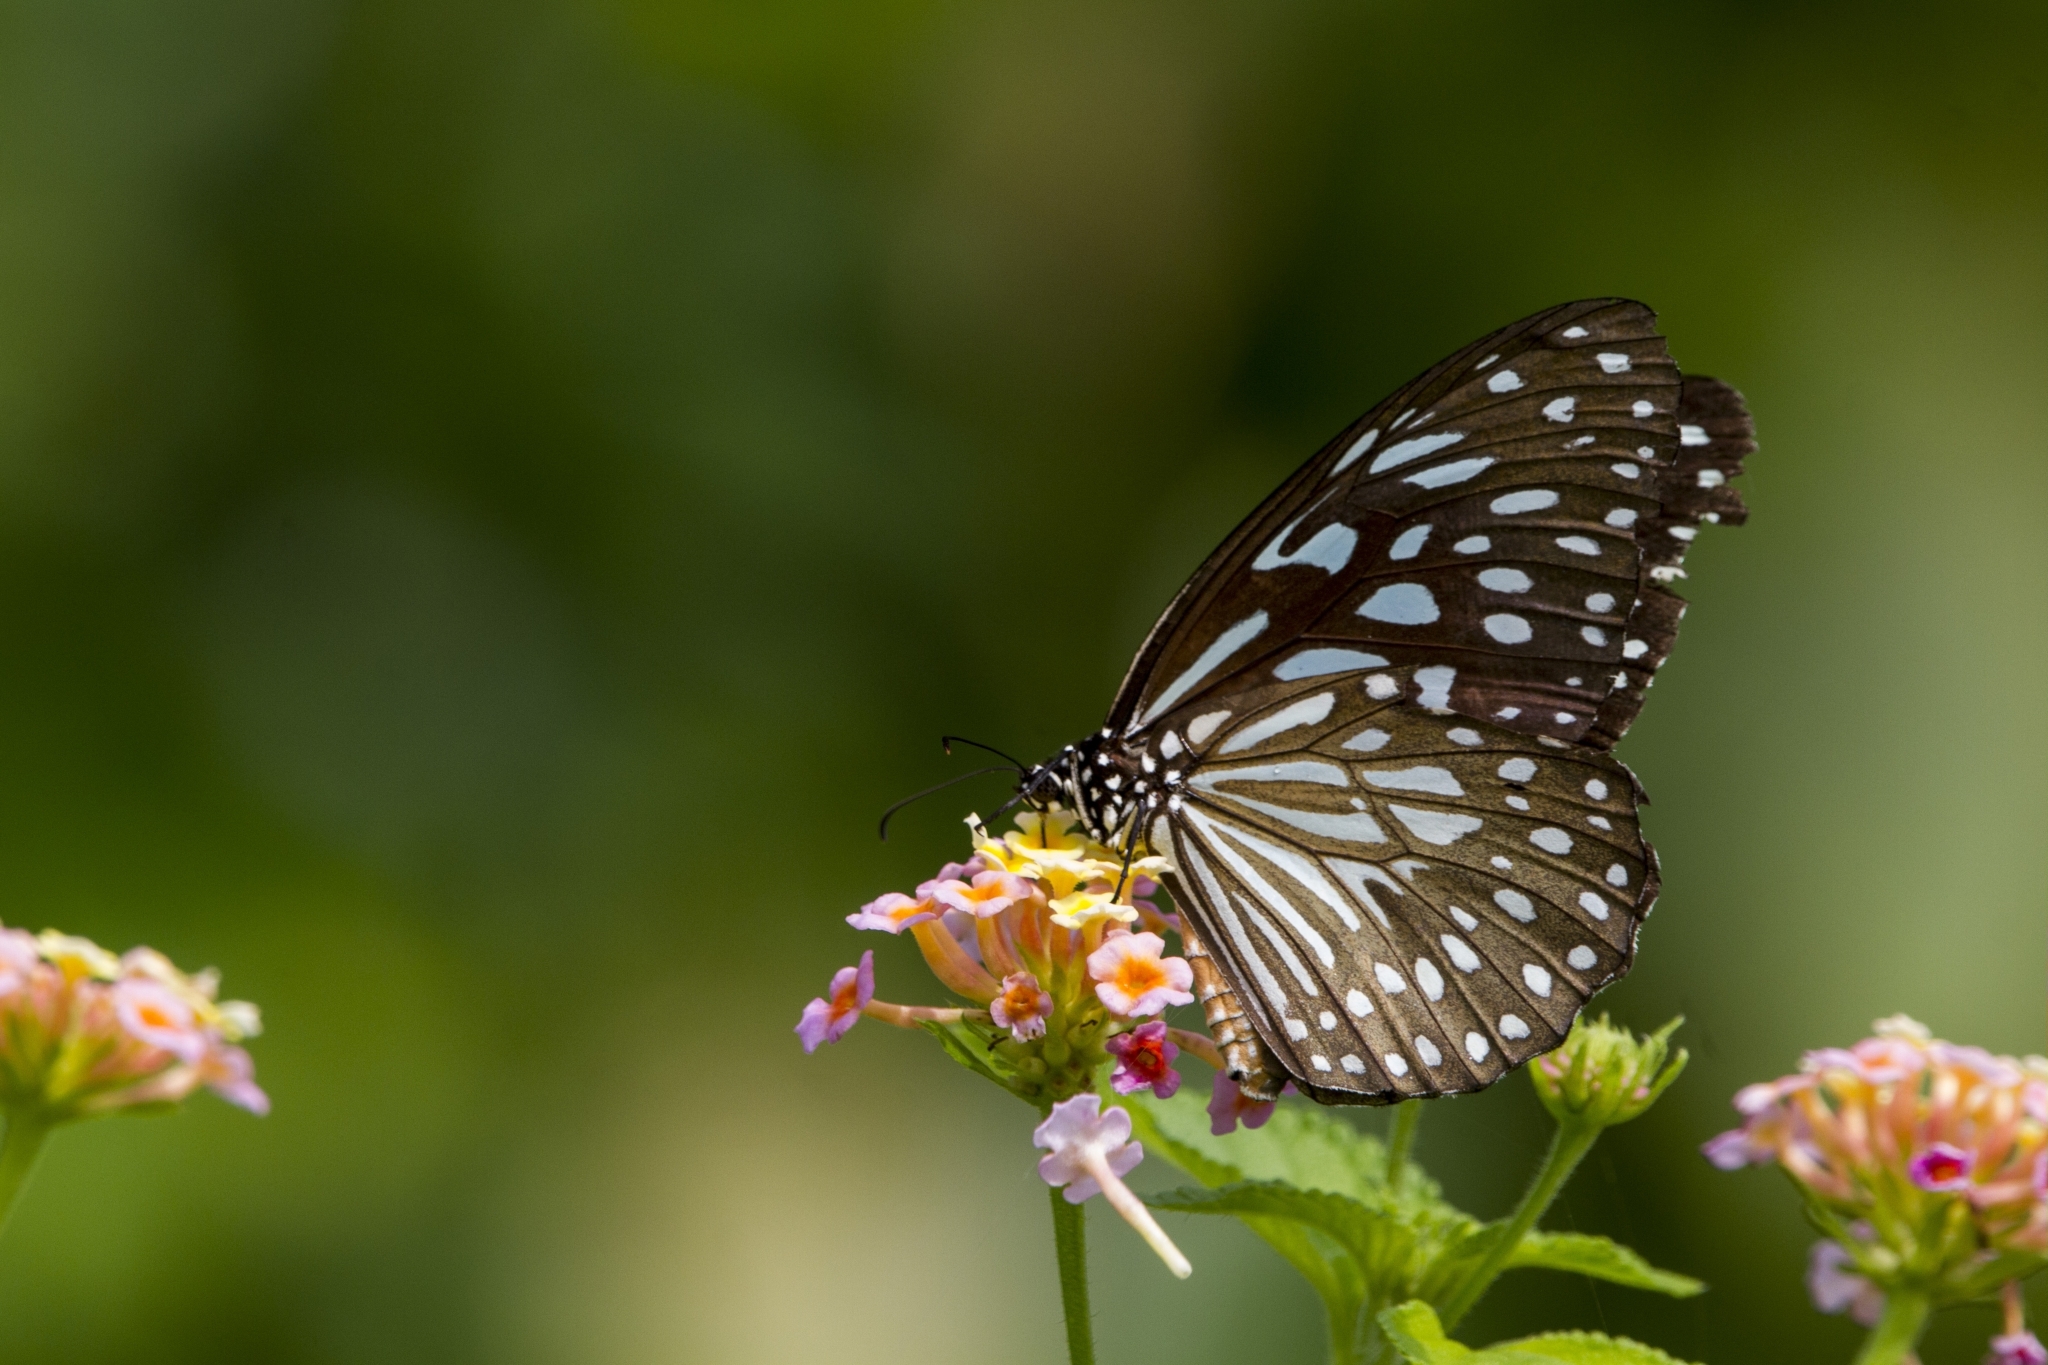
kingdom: Animalia
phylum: Arthropoda
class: Insecta
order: Lepidoptera
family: Nymphalidae
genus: Tirumala
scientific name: Tirumala septentrionis
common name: Dark blue tiger butterfly
